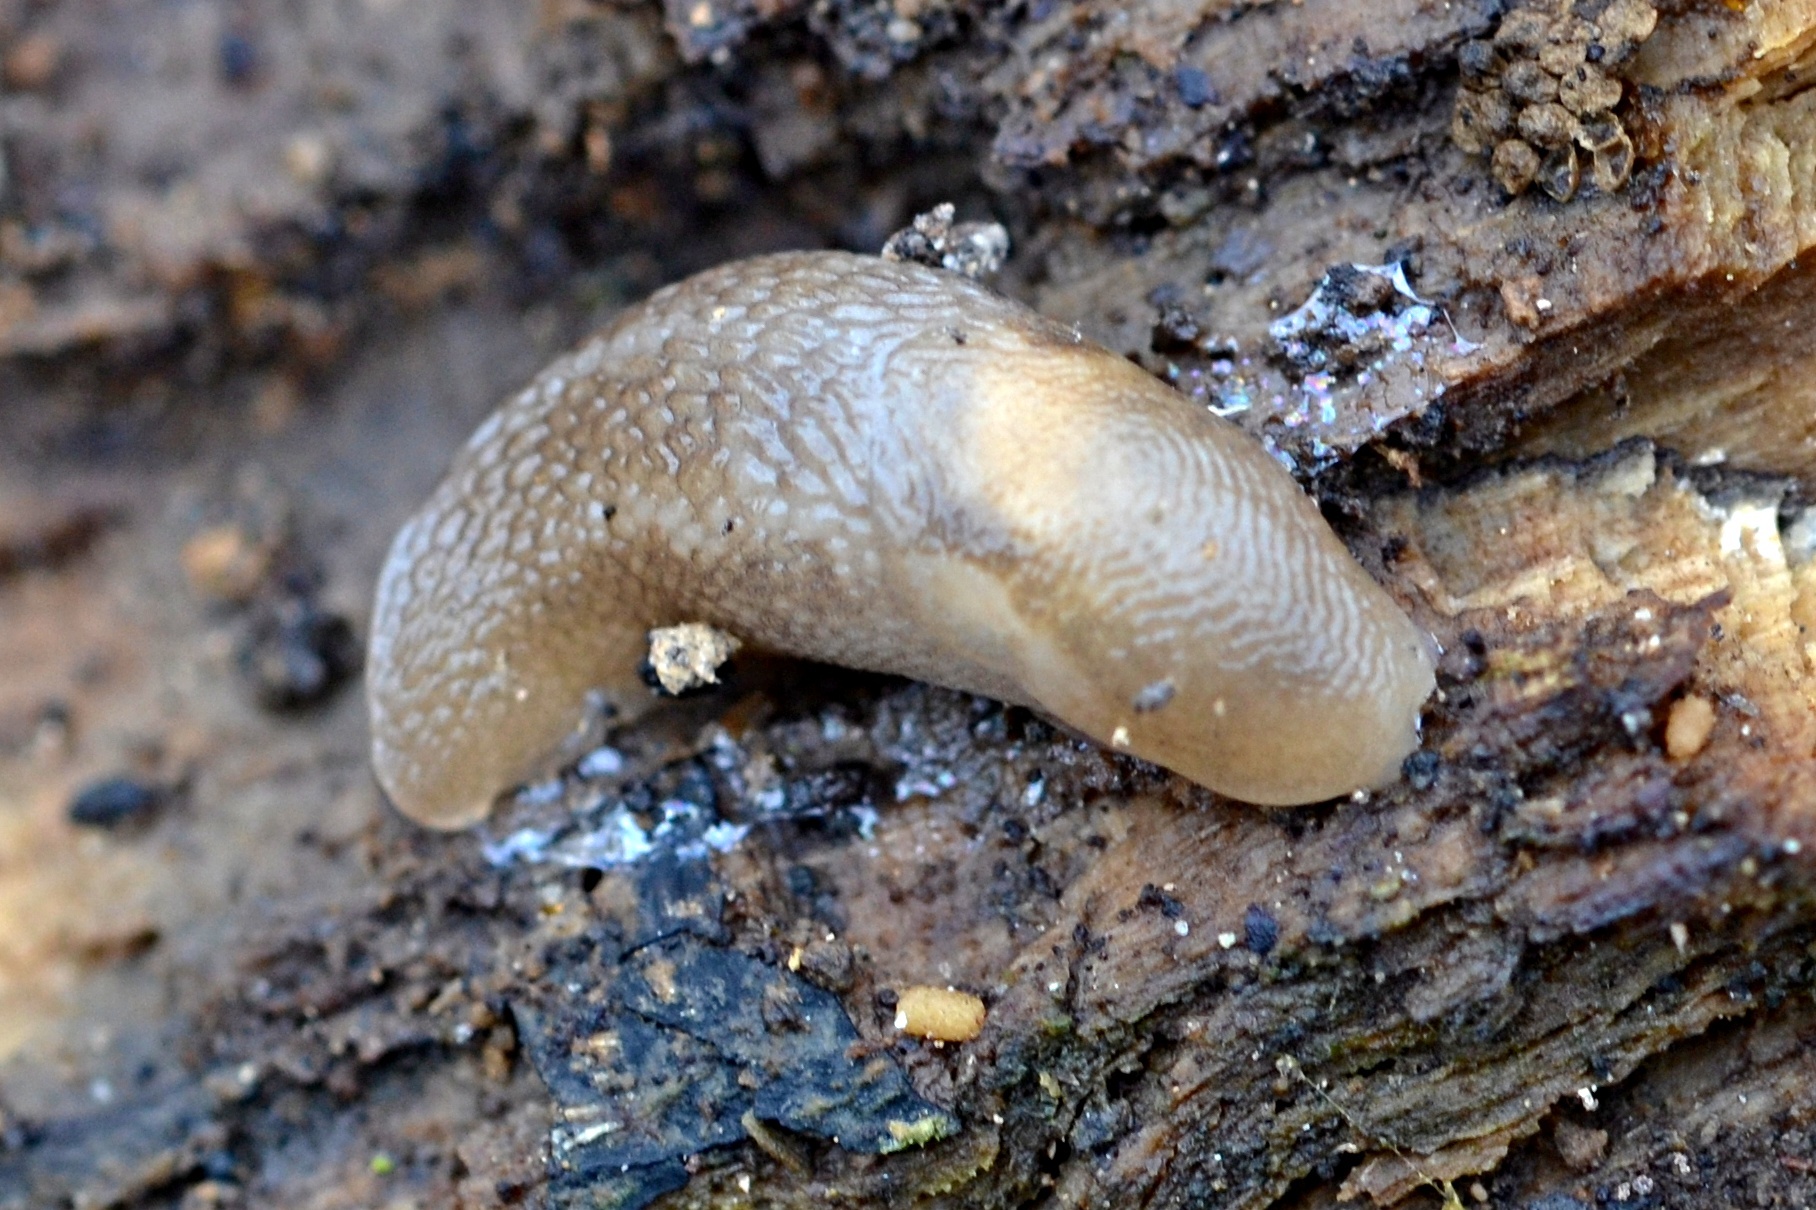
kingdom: Animalia
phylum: Mollusca
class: Gastropoda
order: Stylommatophora
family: Limacidae
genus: Limax
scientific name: Limax cinereoniger
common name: Ash-black slug
